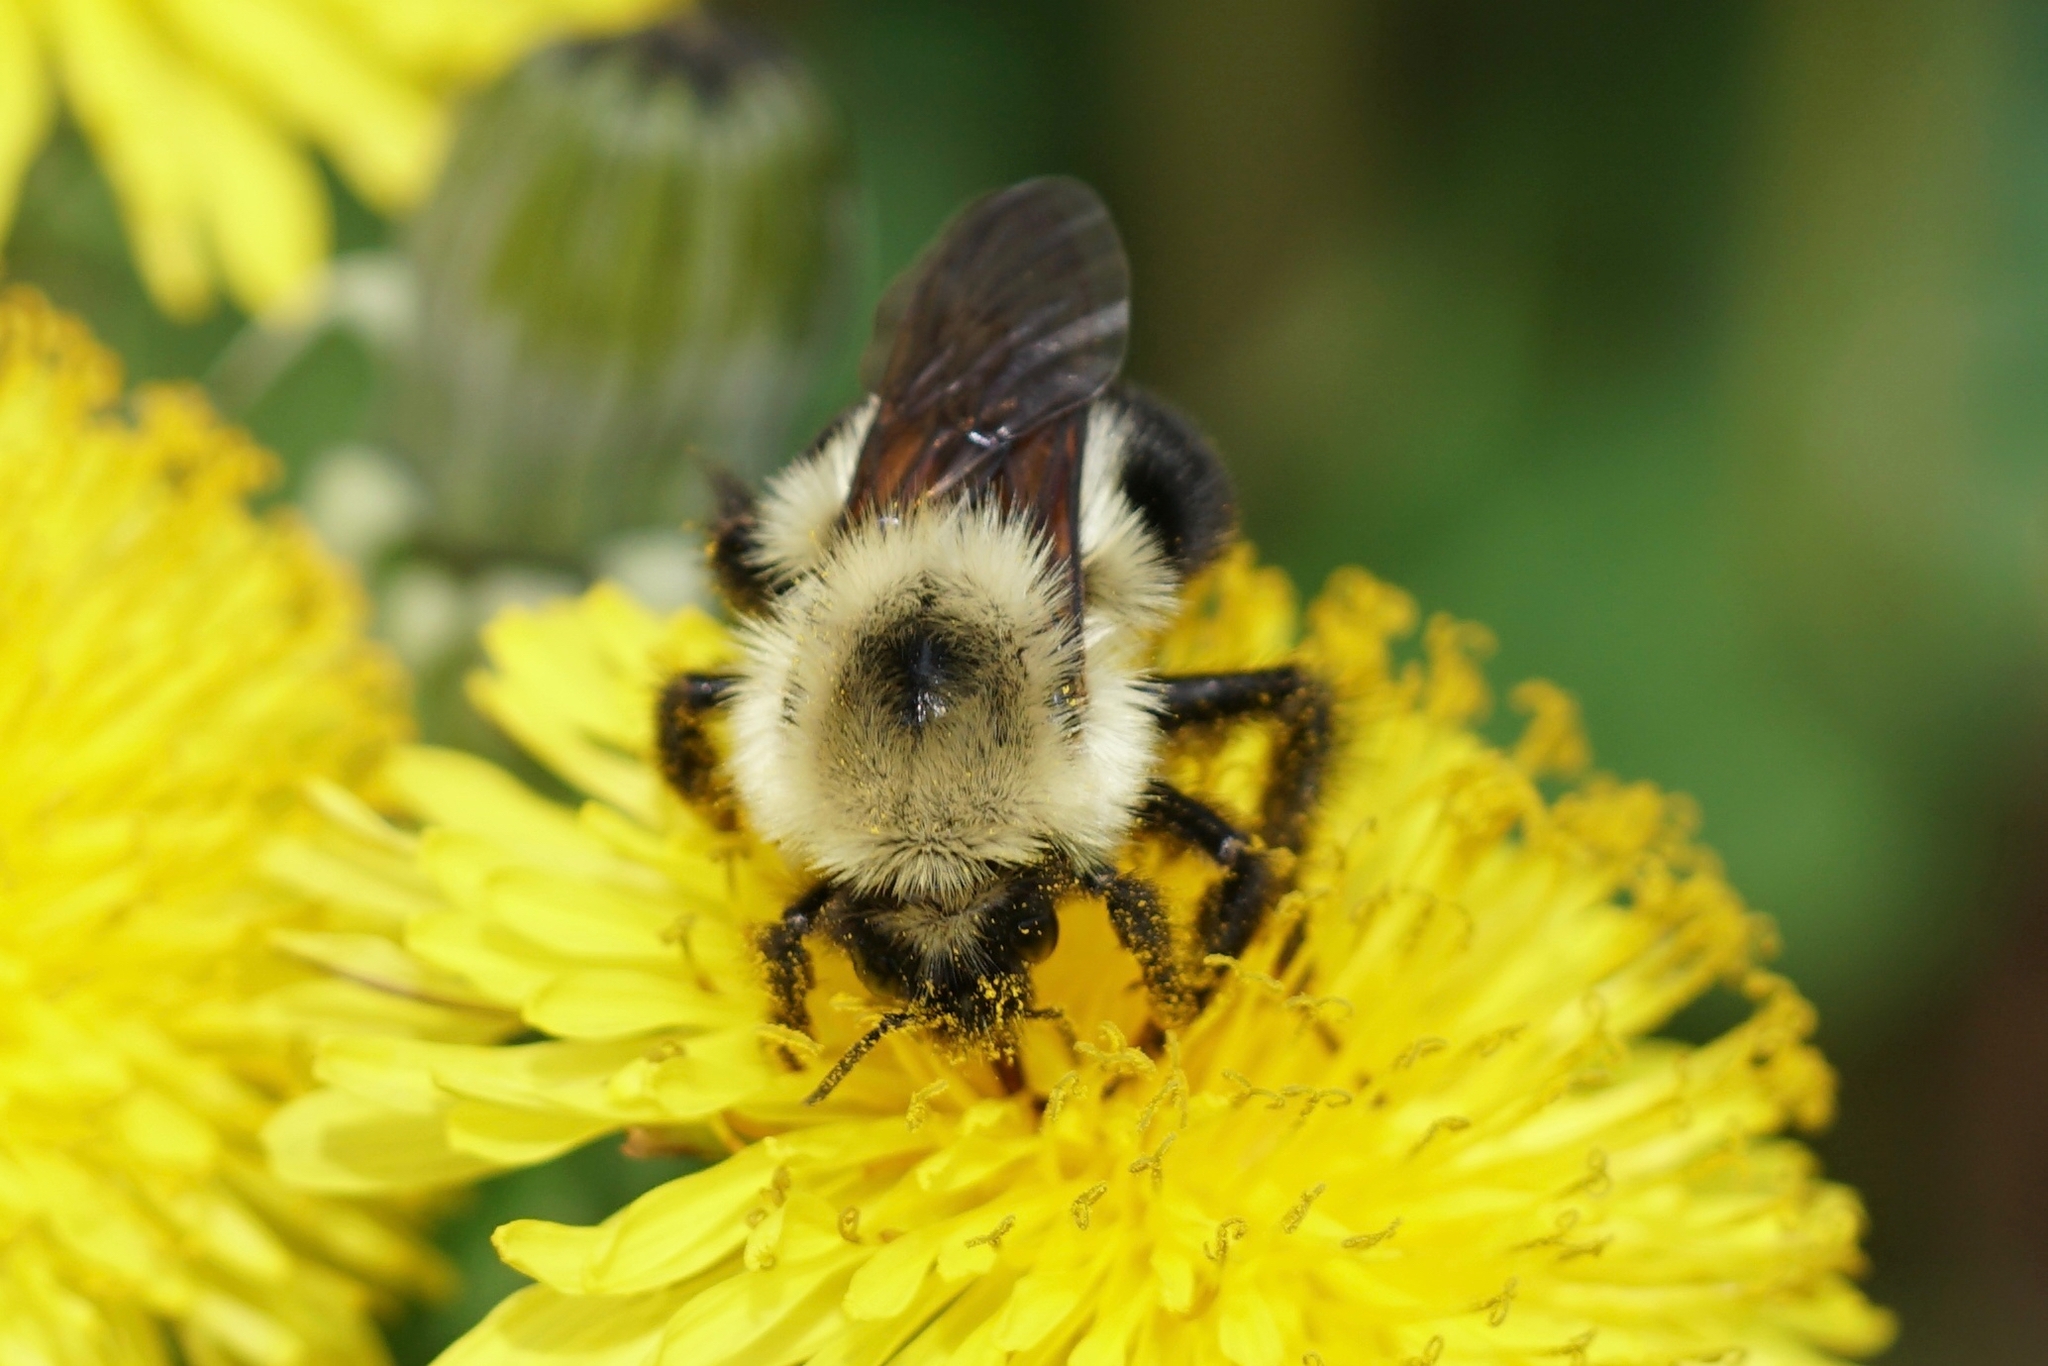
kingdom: Animalia
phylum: Arthropoda
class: Insecta
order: Hymenoptera
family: Apidae
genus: Bombus
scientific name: Bombus bimaculatus
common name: Two-spotted bumble bee
